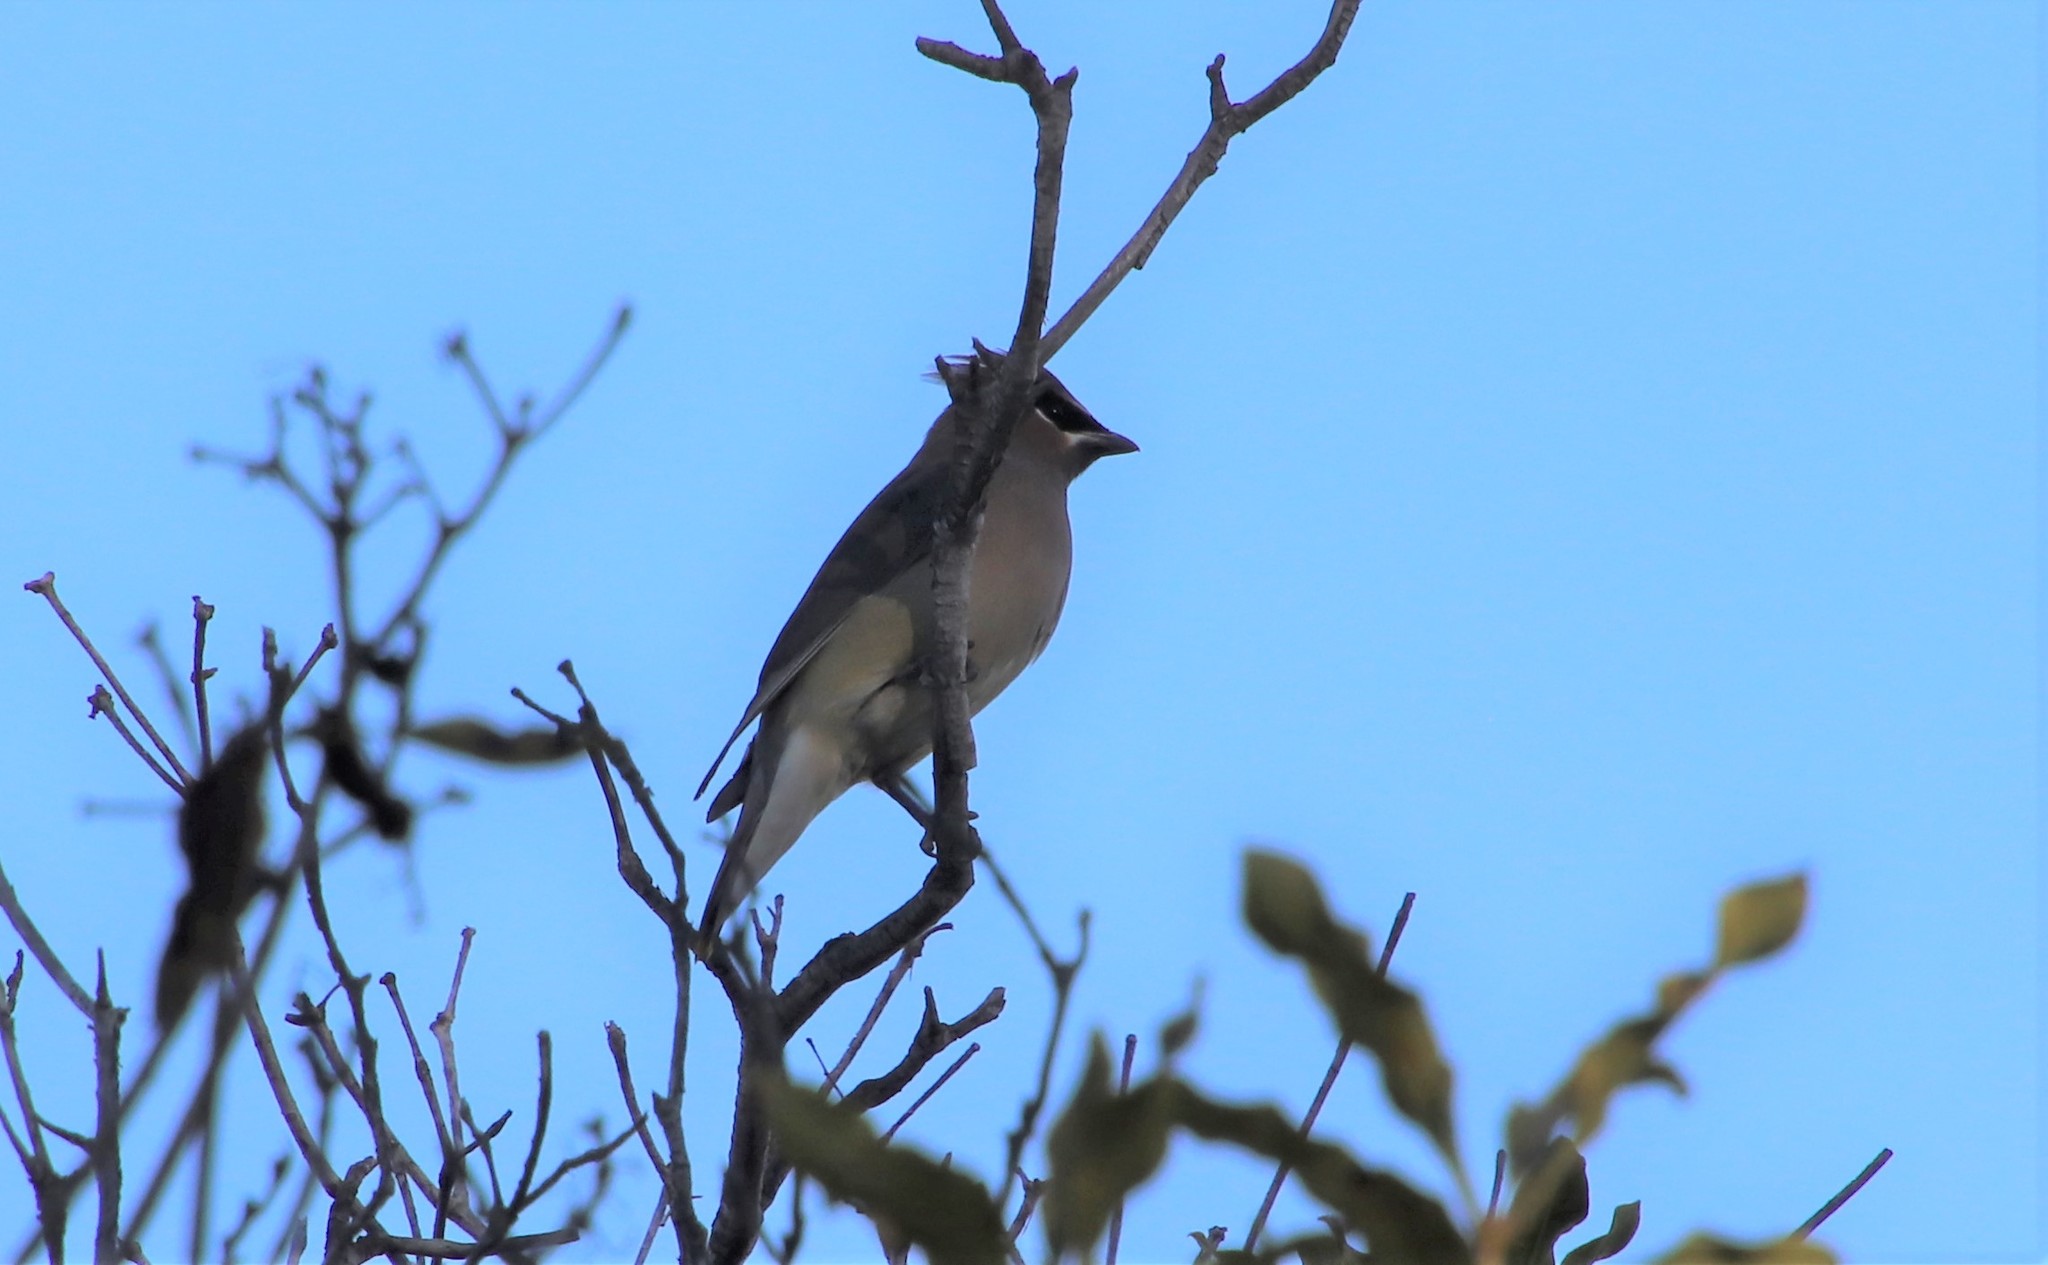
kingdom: Animalia
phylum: Chordata
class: Aves
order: Passeriformes
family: Bombycillidae
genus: Bombycilla
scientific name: Bombycilla cedrorum
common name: Cedar waxwing
